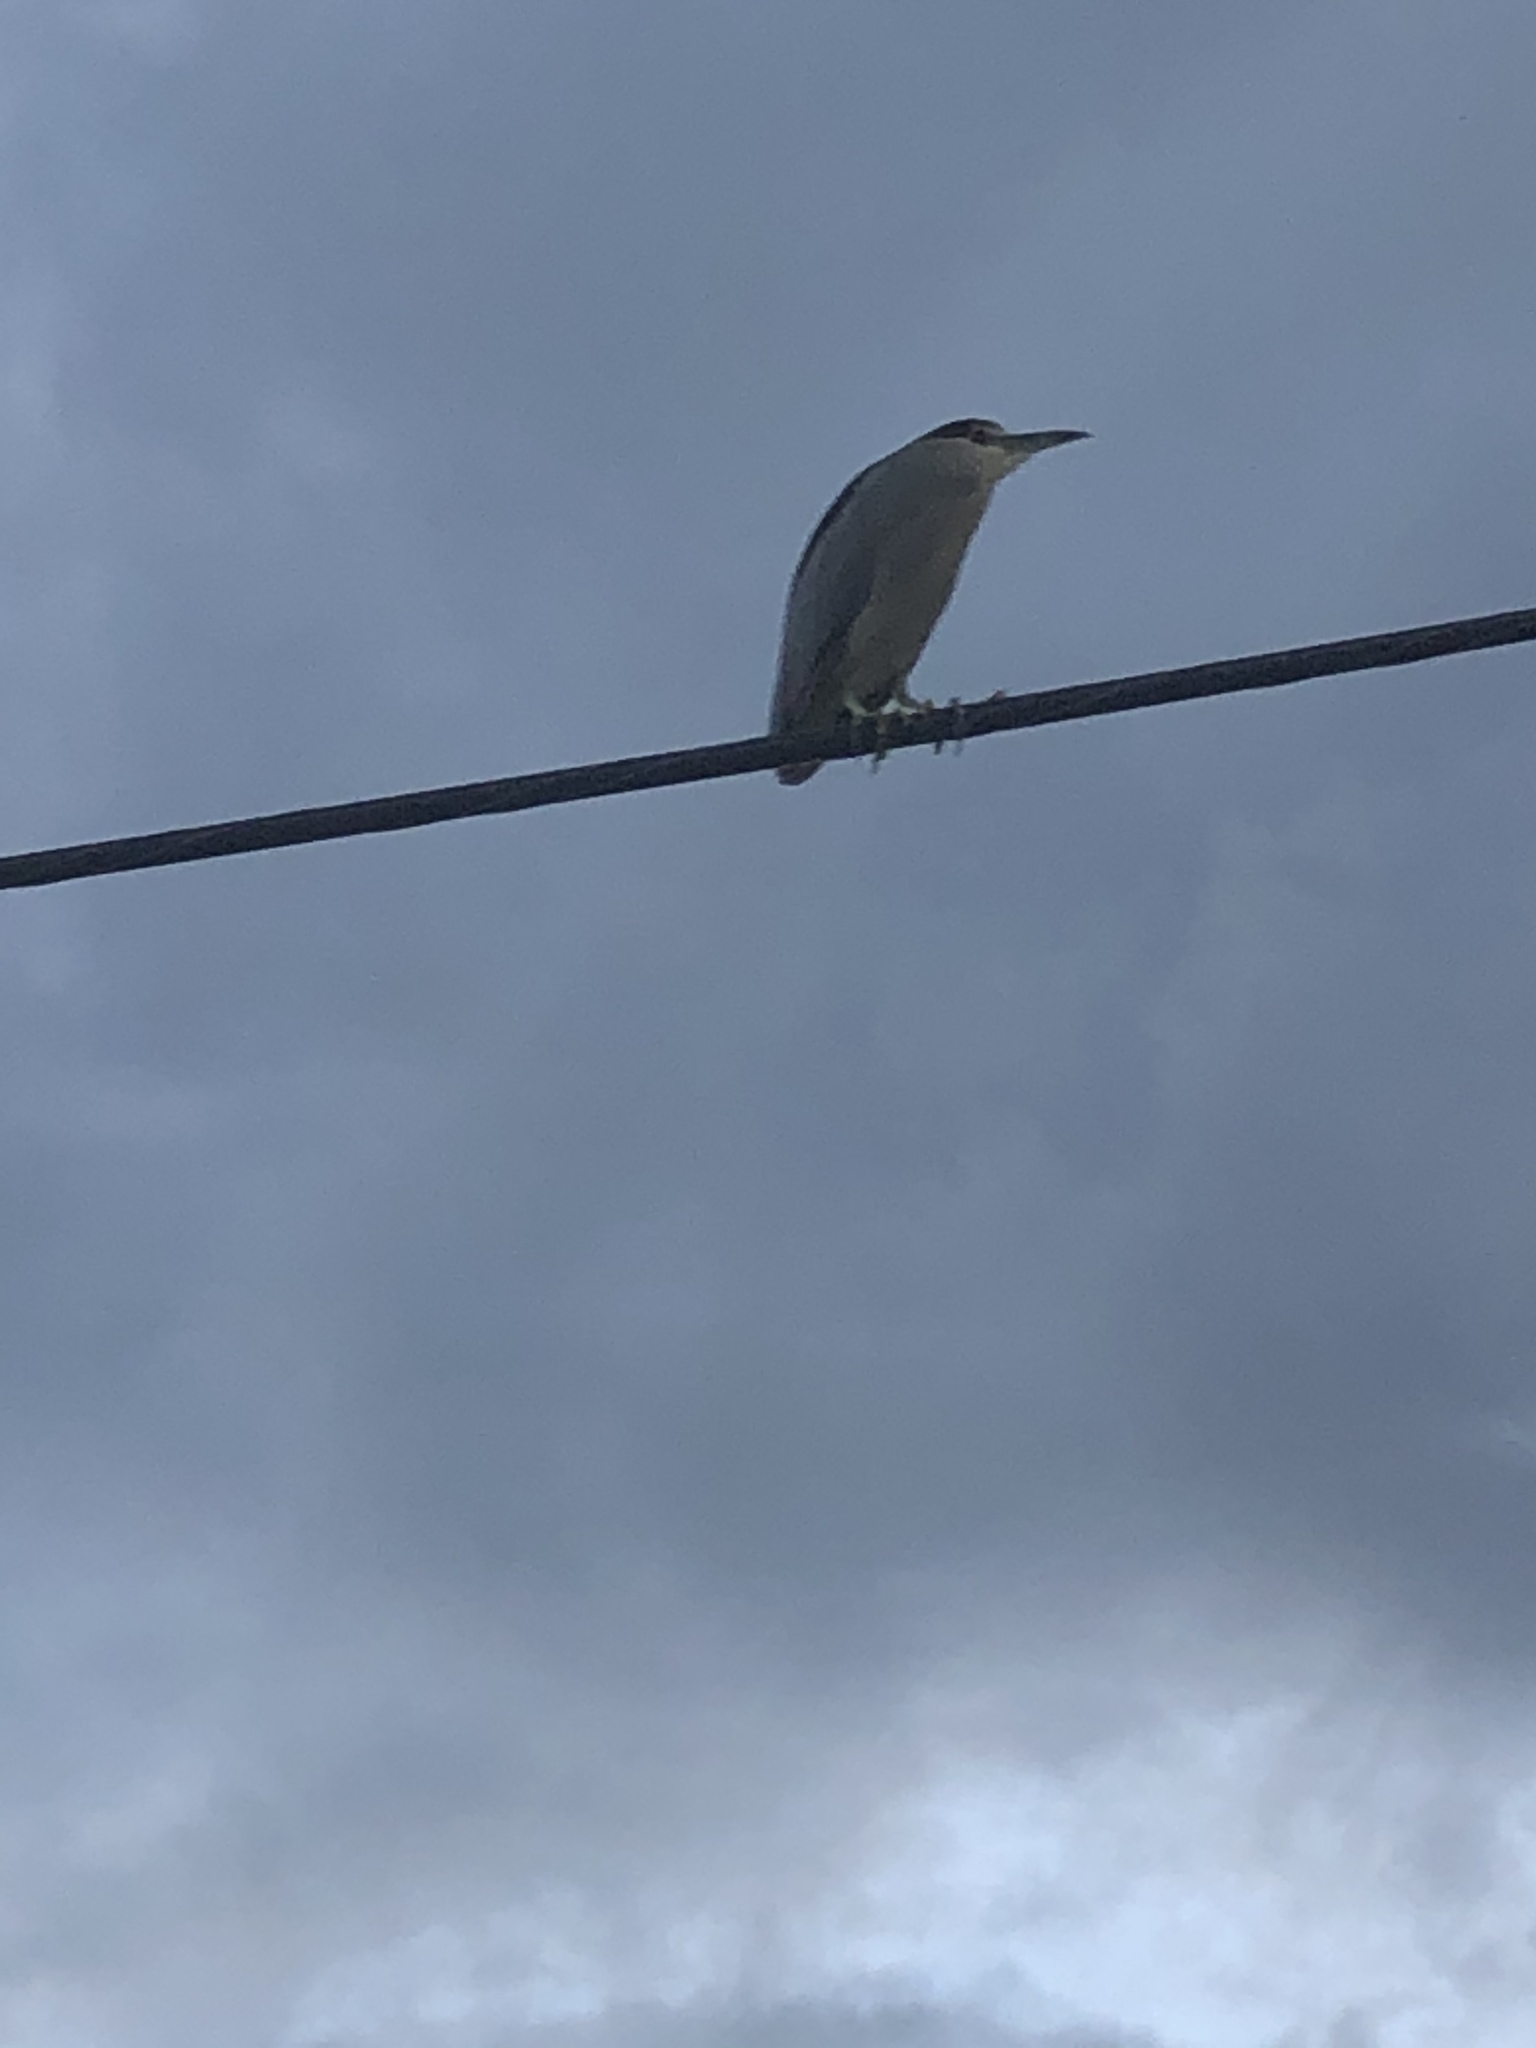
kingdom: Animalia
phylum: Chordata
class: Aves
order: Pelecaniformes
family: Ardeidae
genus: Nycticorax
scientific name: Nycticorax nycticorax
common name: Black-crowned night heron
